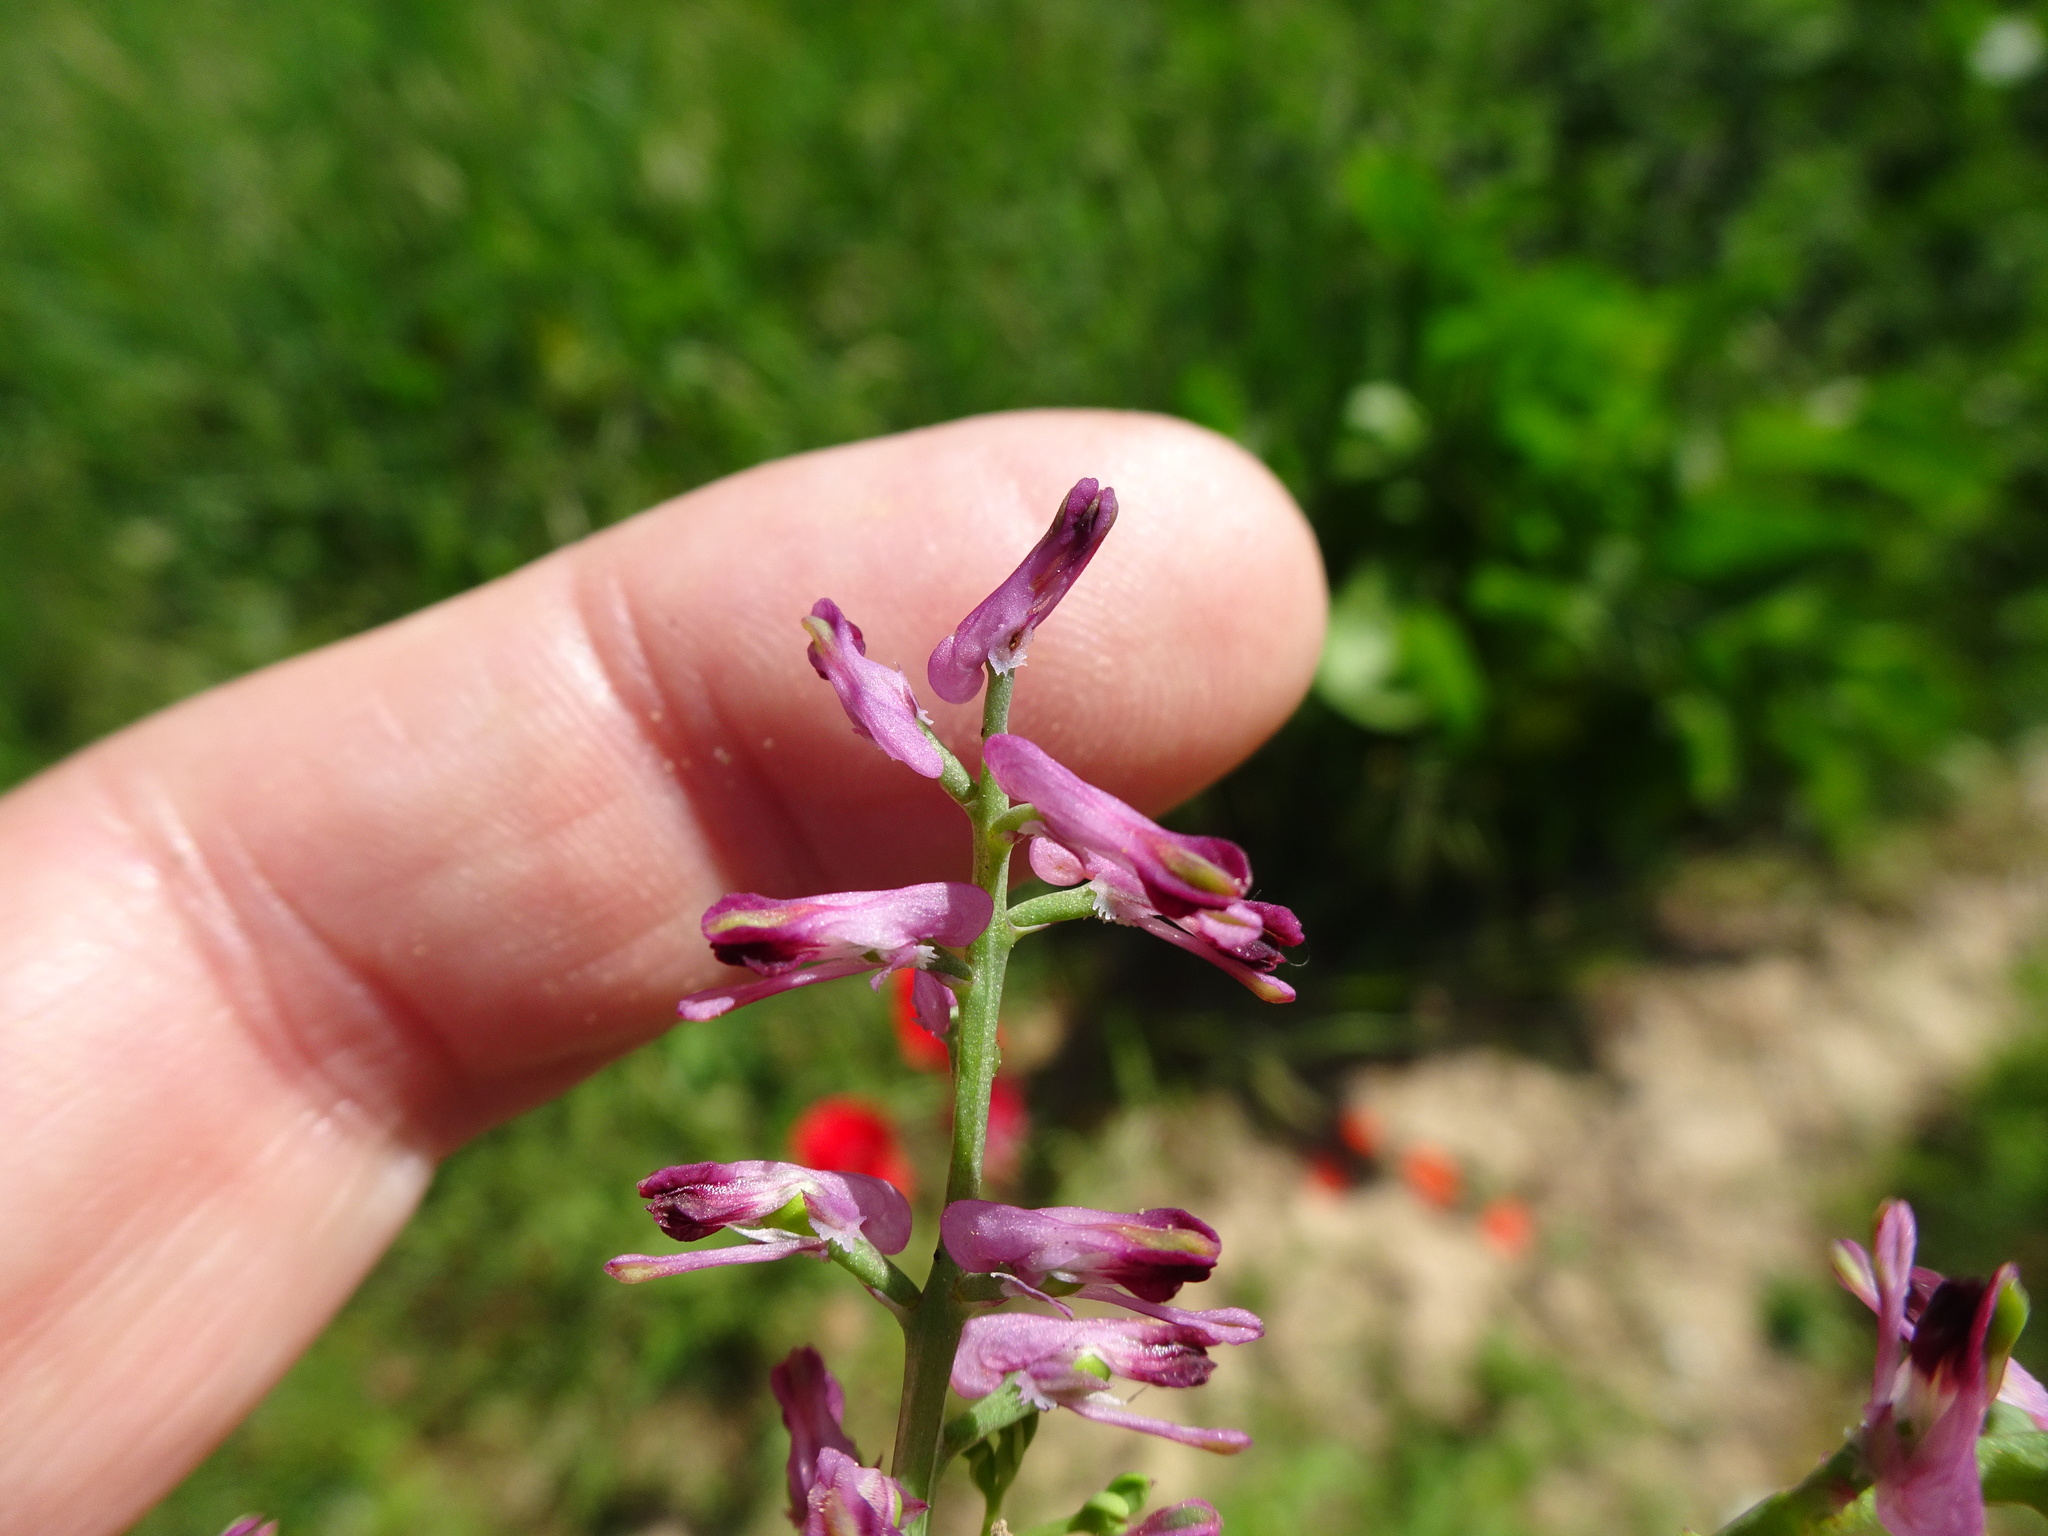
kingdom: Plantae
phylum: Tracheophyta
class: Magnoliopsida
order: Ranunculales
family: Papaveraceae
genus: Fumaria
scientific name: Fumaria officinalis
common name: Common fumitory
